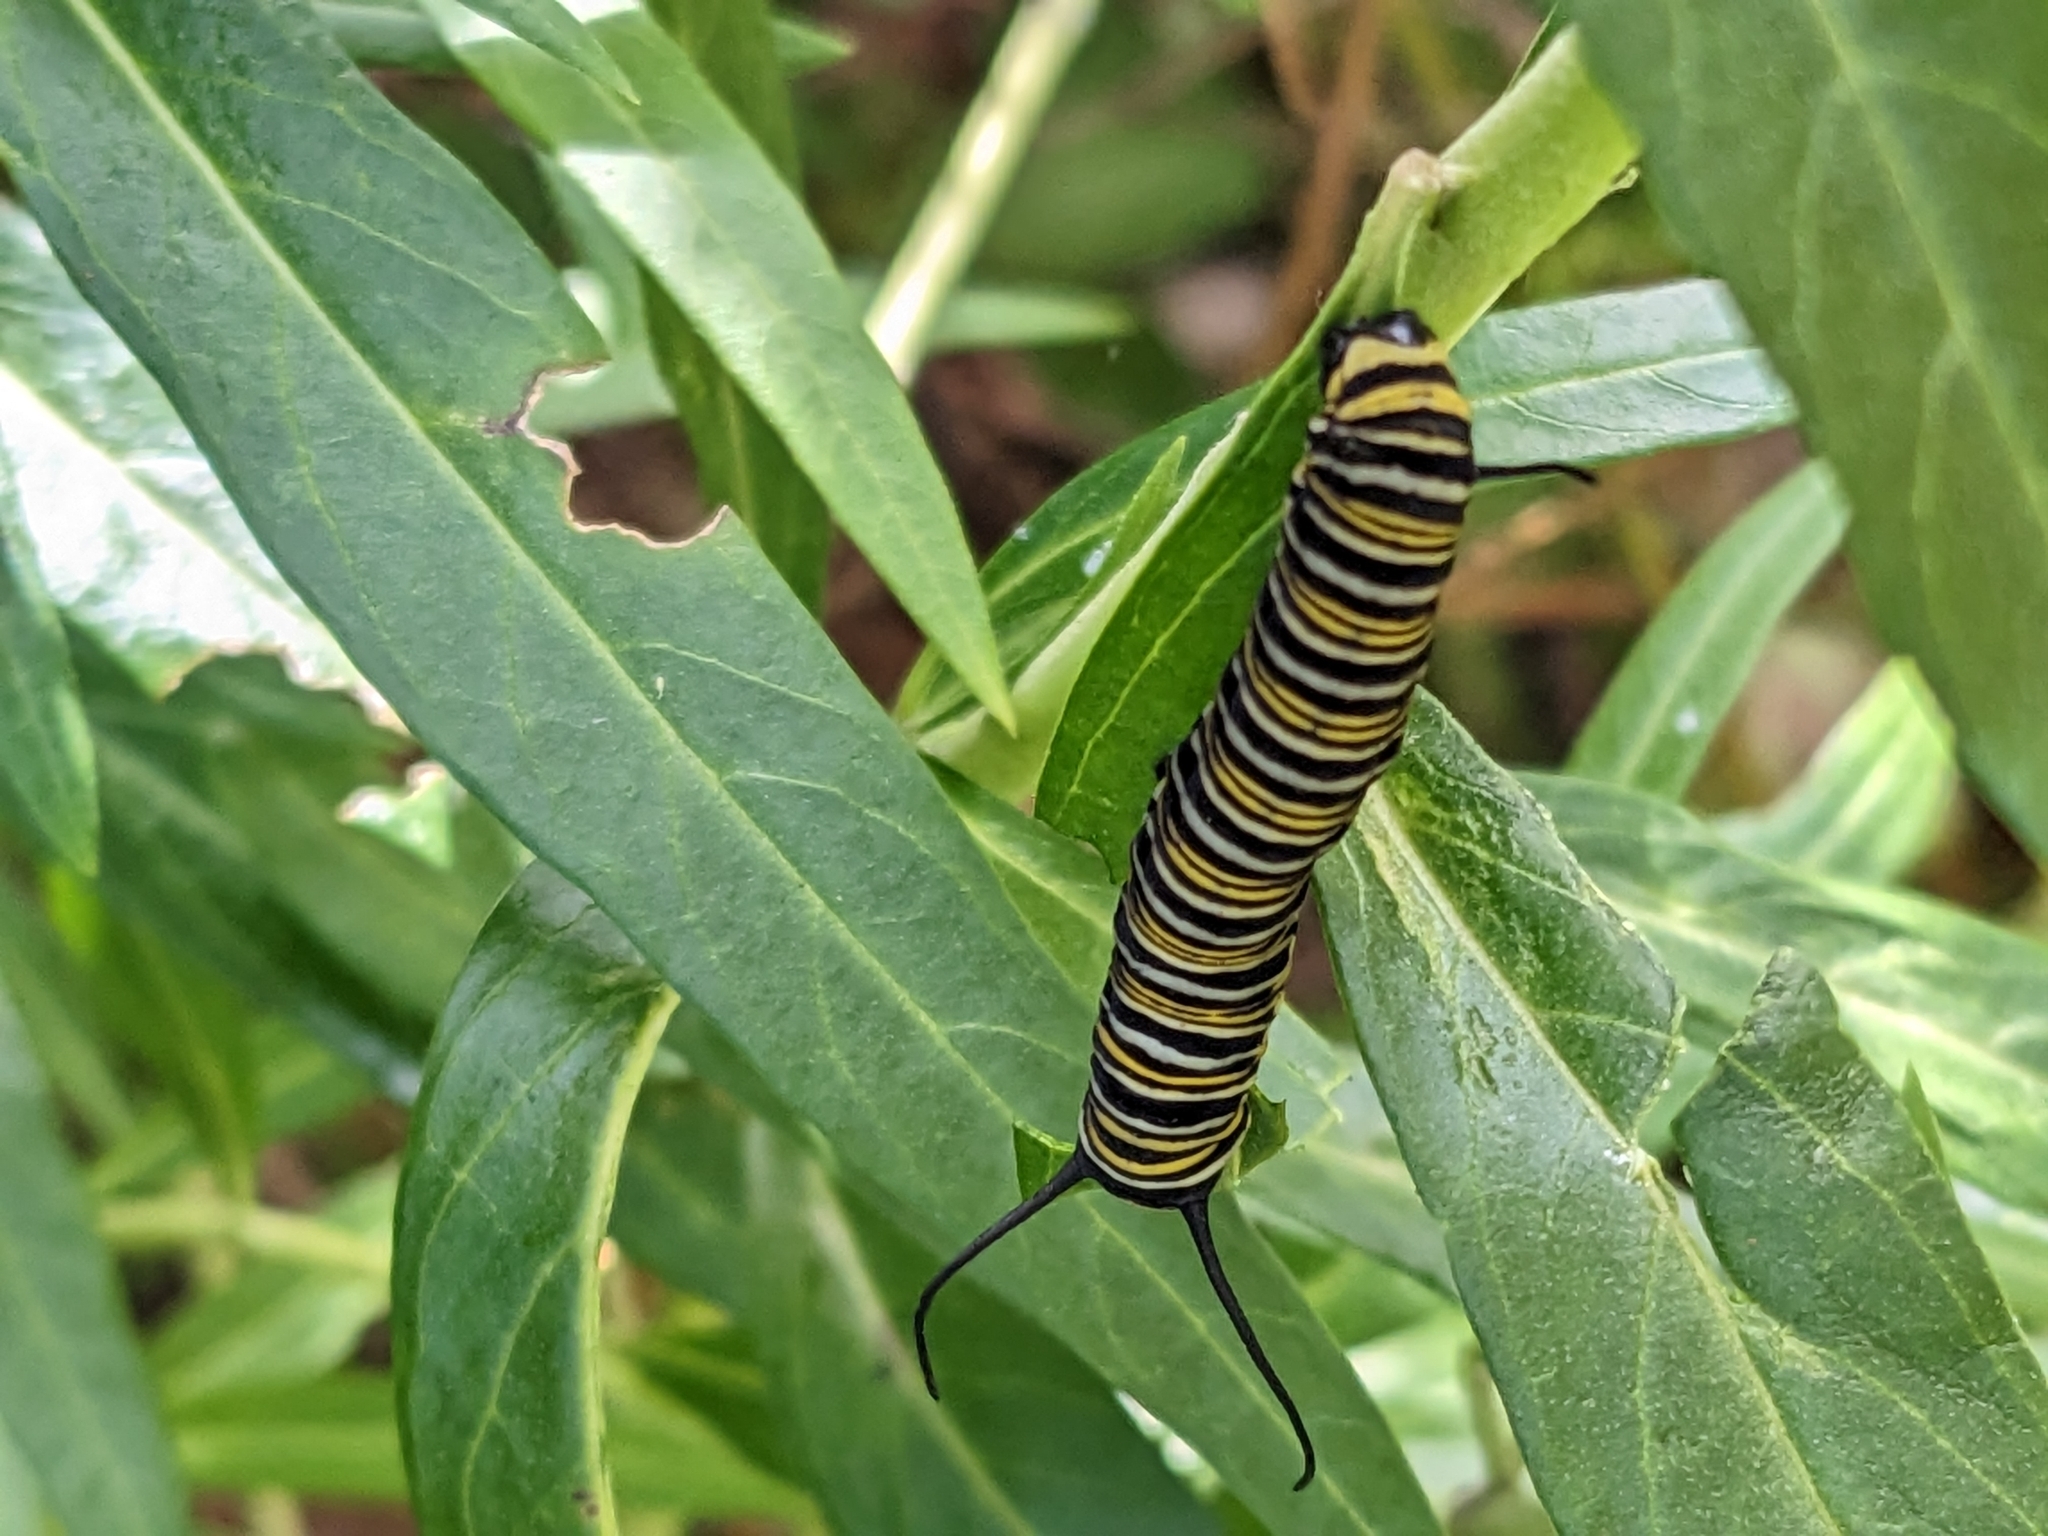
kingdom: Animalia
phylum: Arthropoda
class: Insecta
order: Lepidoptera
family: Nymphalidae
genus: Danaus
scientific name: Danaus plexippus
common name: Monarch
